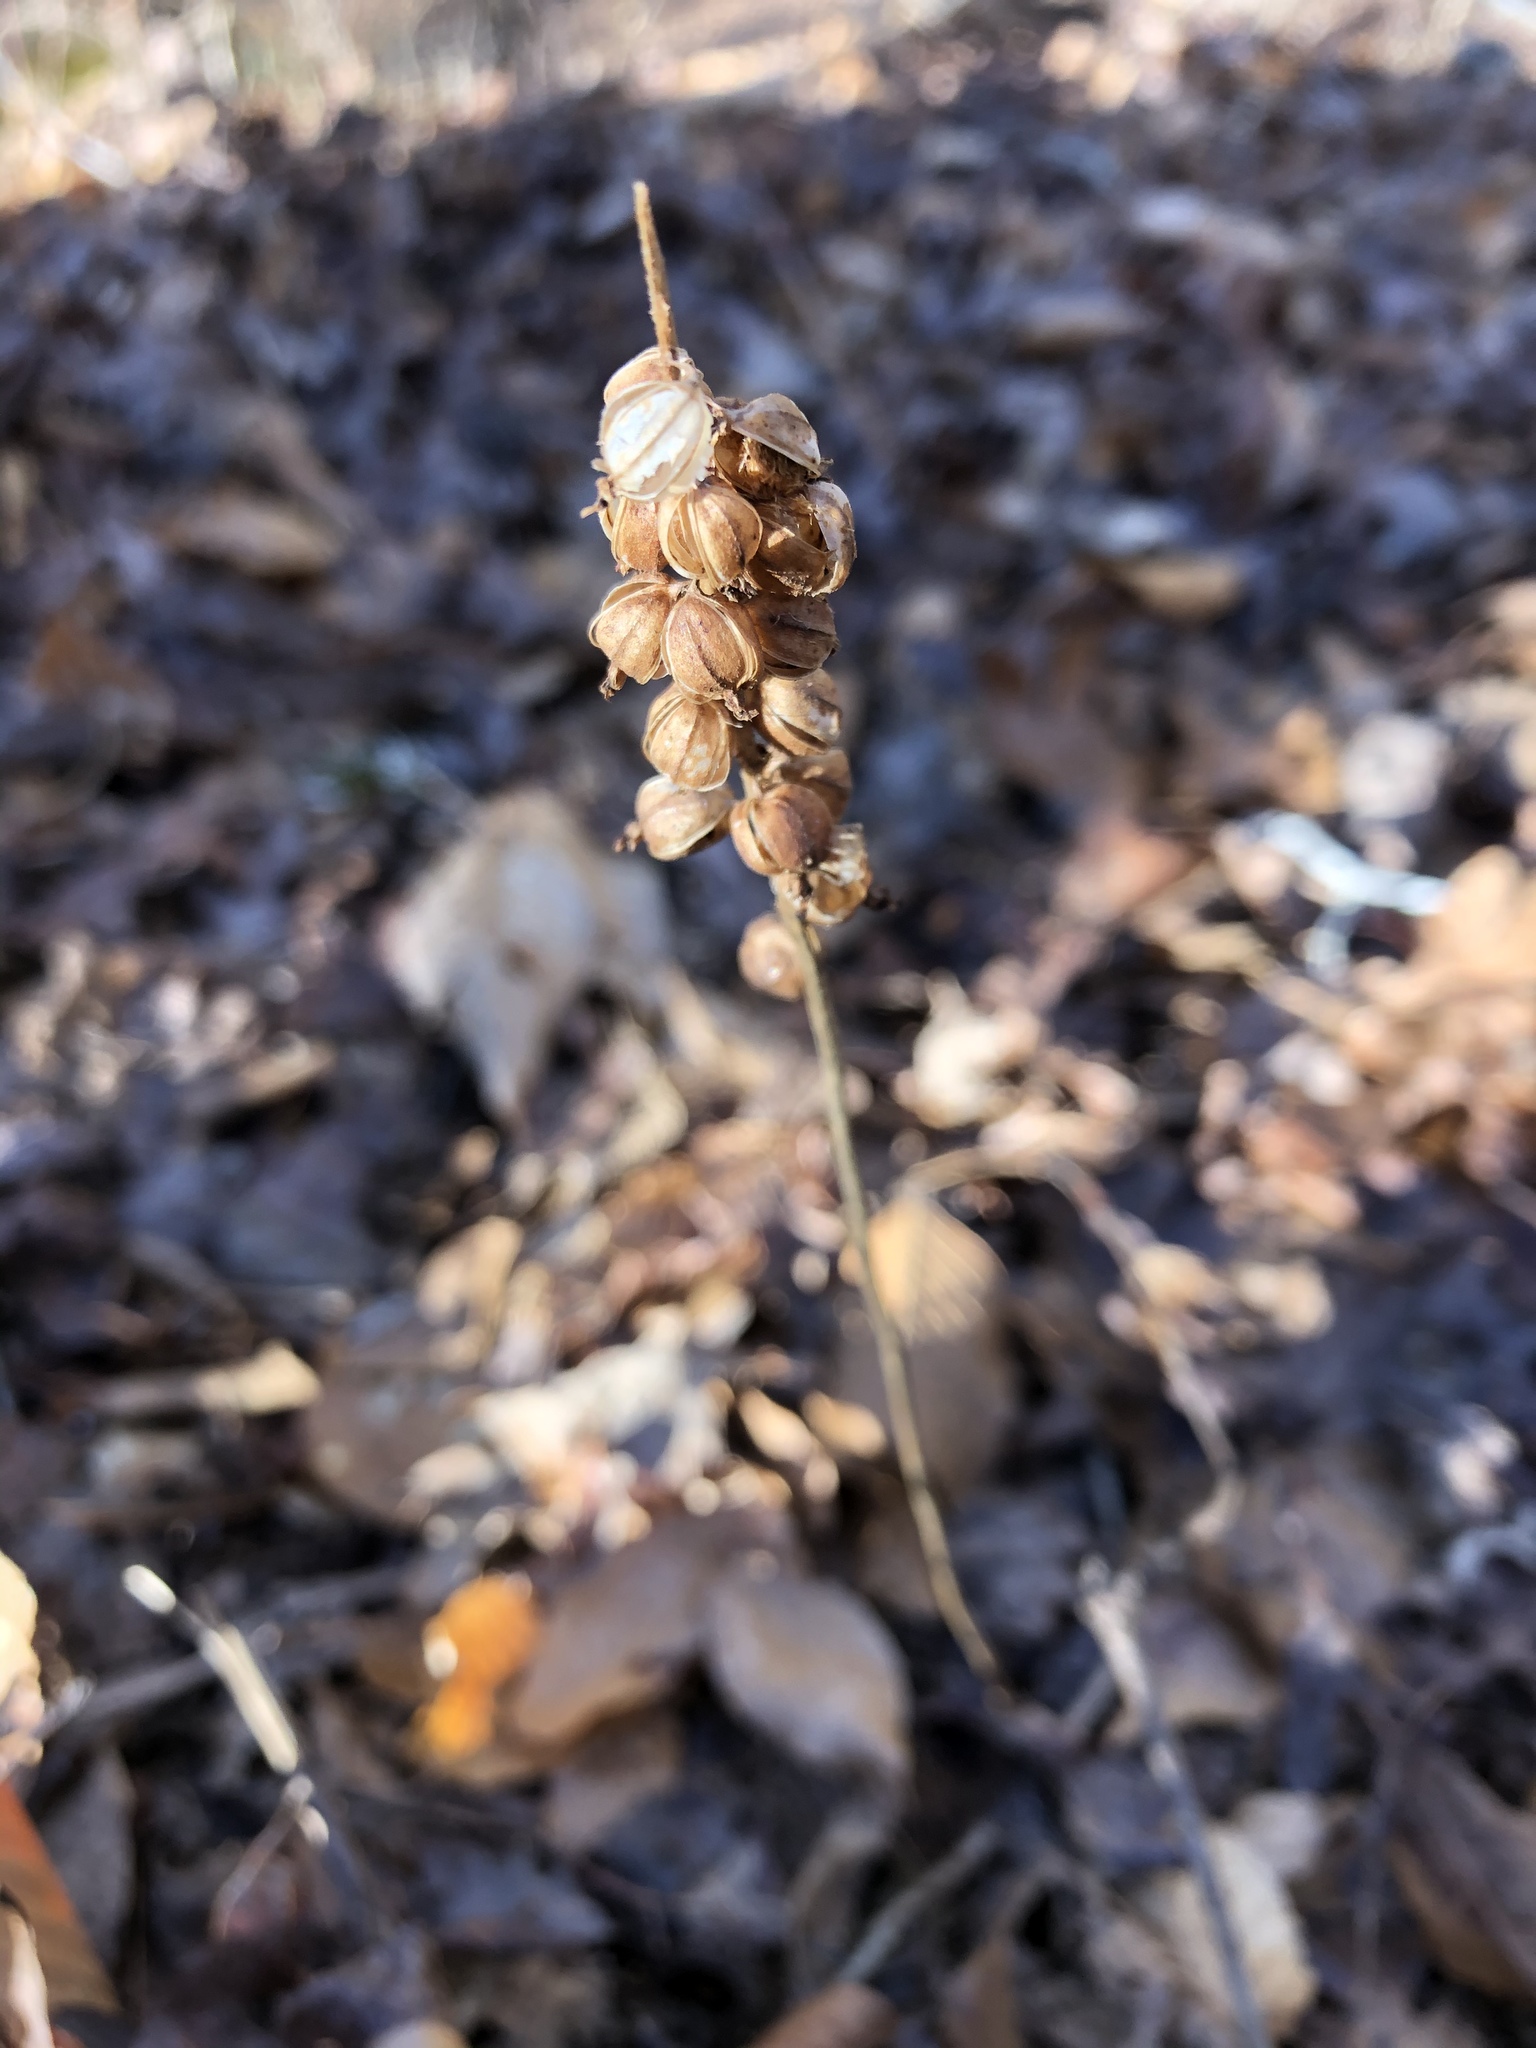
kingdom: Plantae
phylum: Tracheophyta
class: Liliopsida
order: Asparagales
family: Orchidaceae
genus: Goodyera
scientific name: Goodyera pubescens
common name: Downy rattlesnake-plantain
